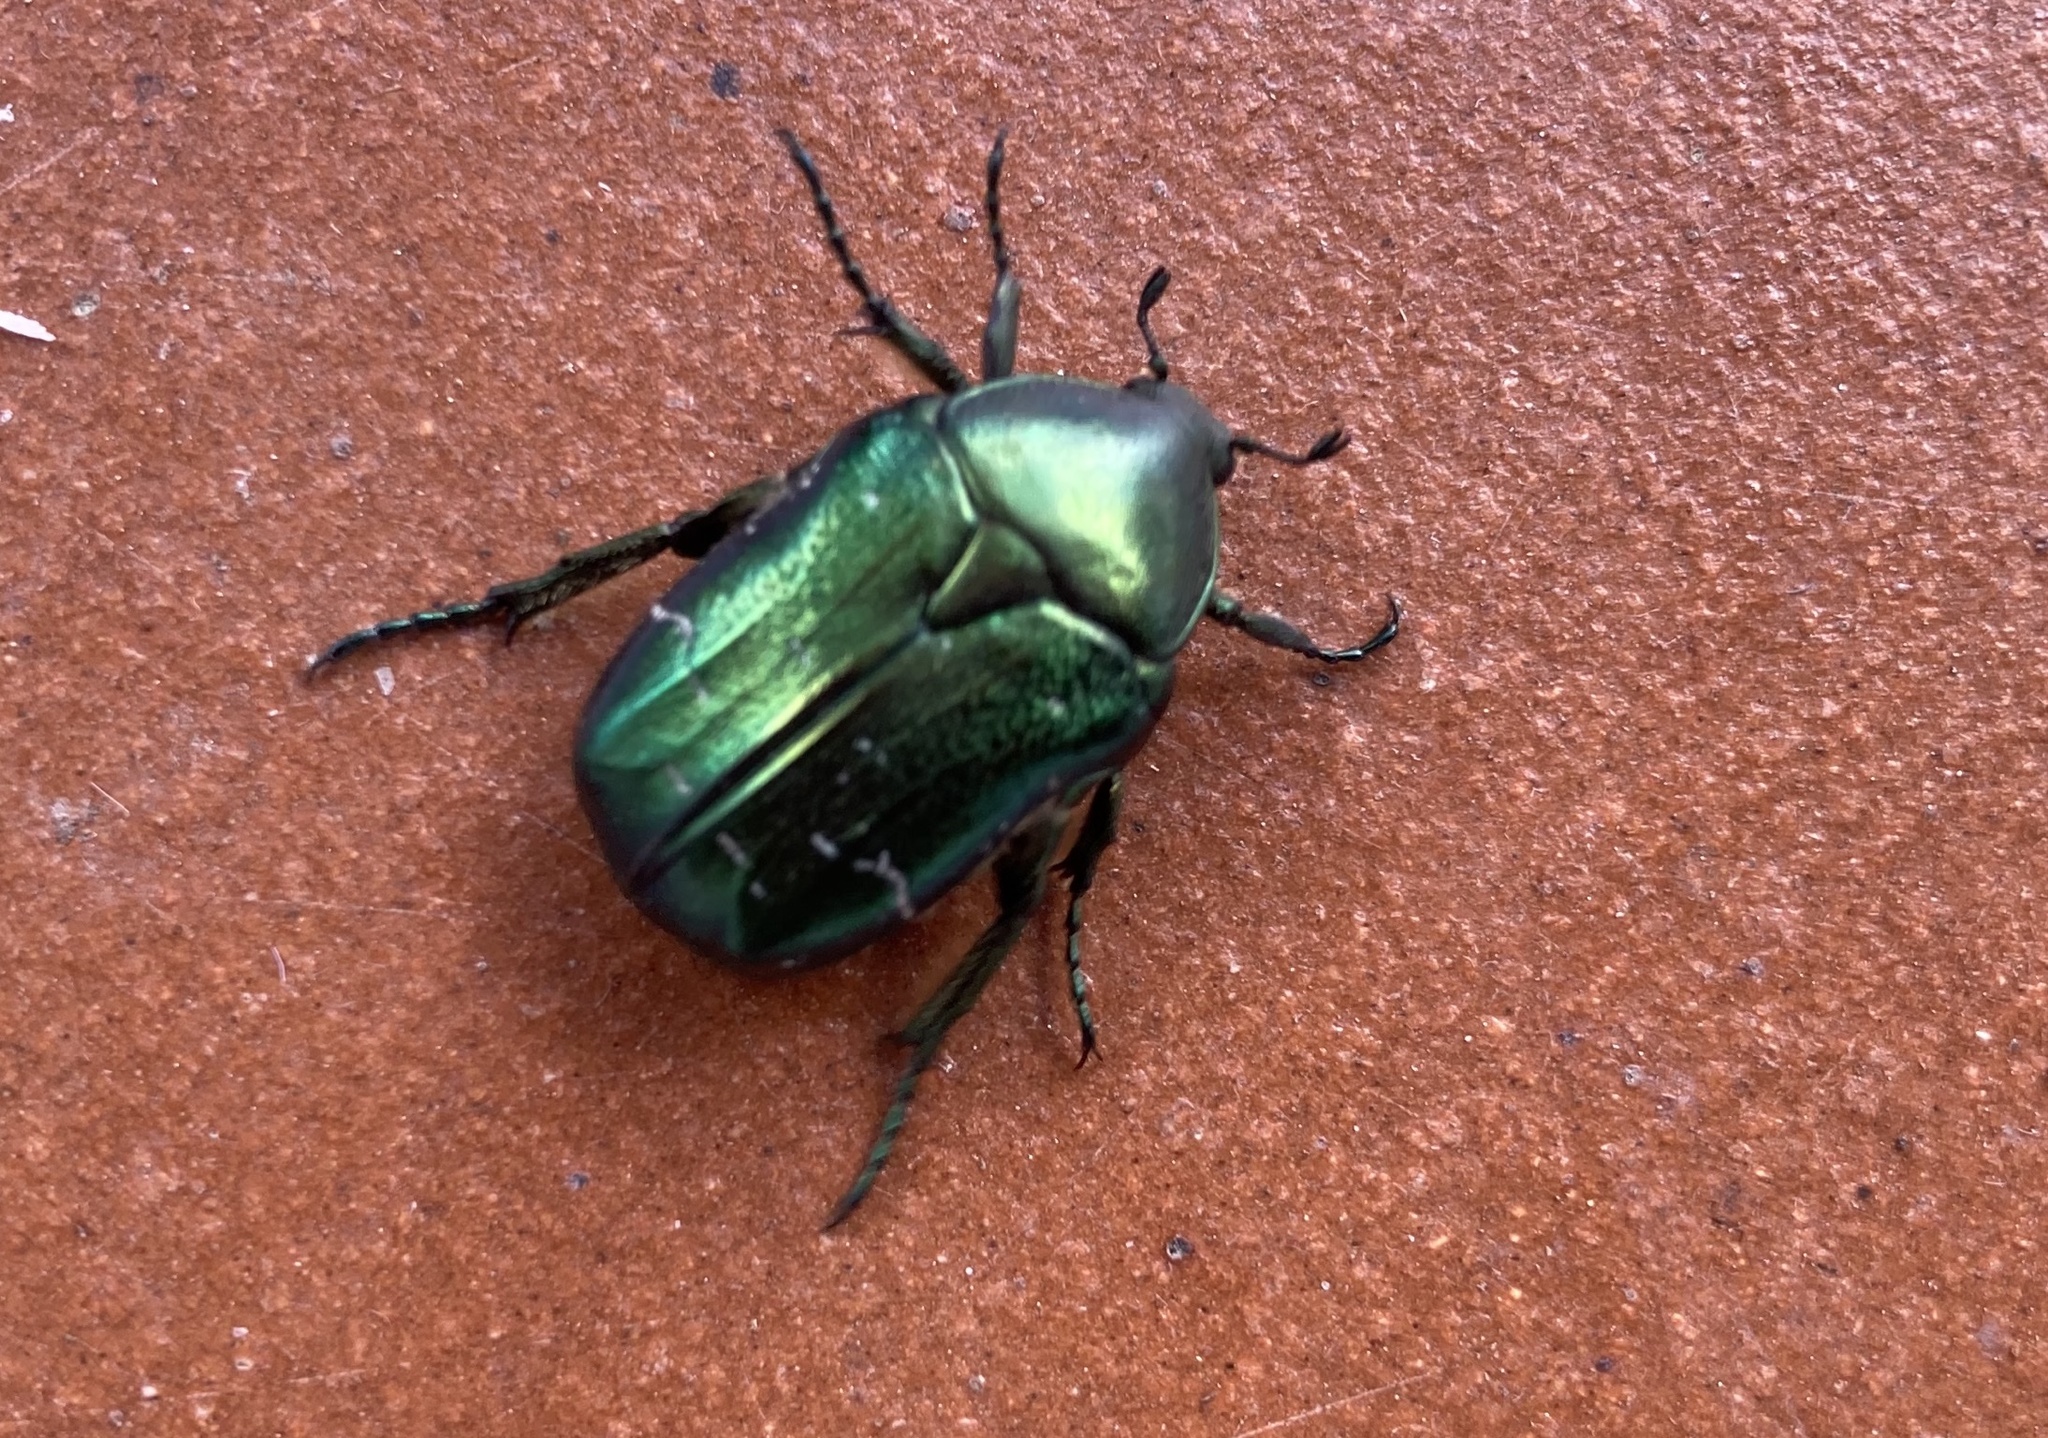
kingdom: Animalia
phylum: Arthropoda
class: Insecta
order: Coleoptera
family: Scarabaeidae
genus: Cetonia
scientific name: Cetonia aurata
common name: Rose chafer
